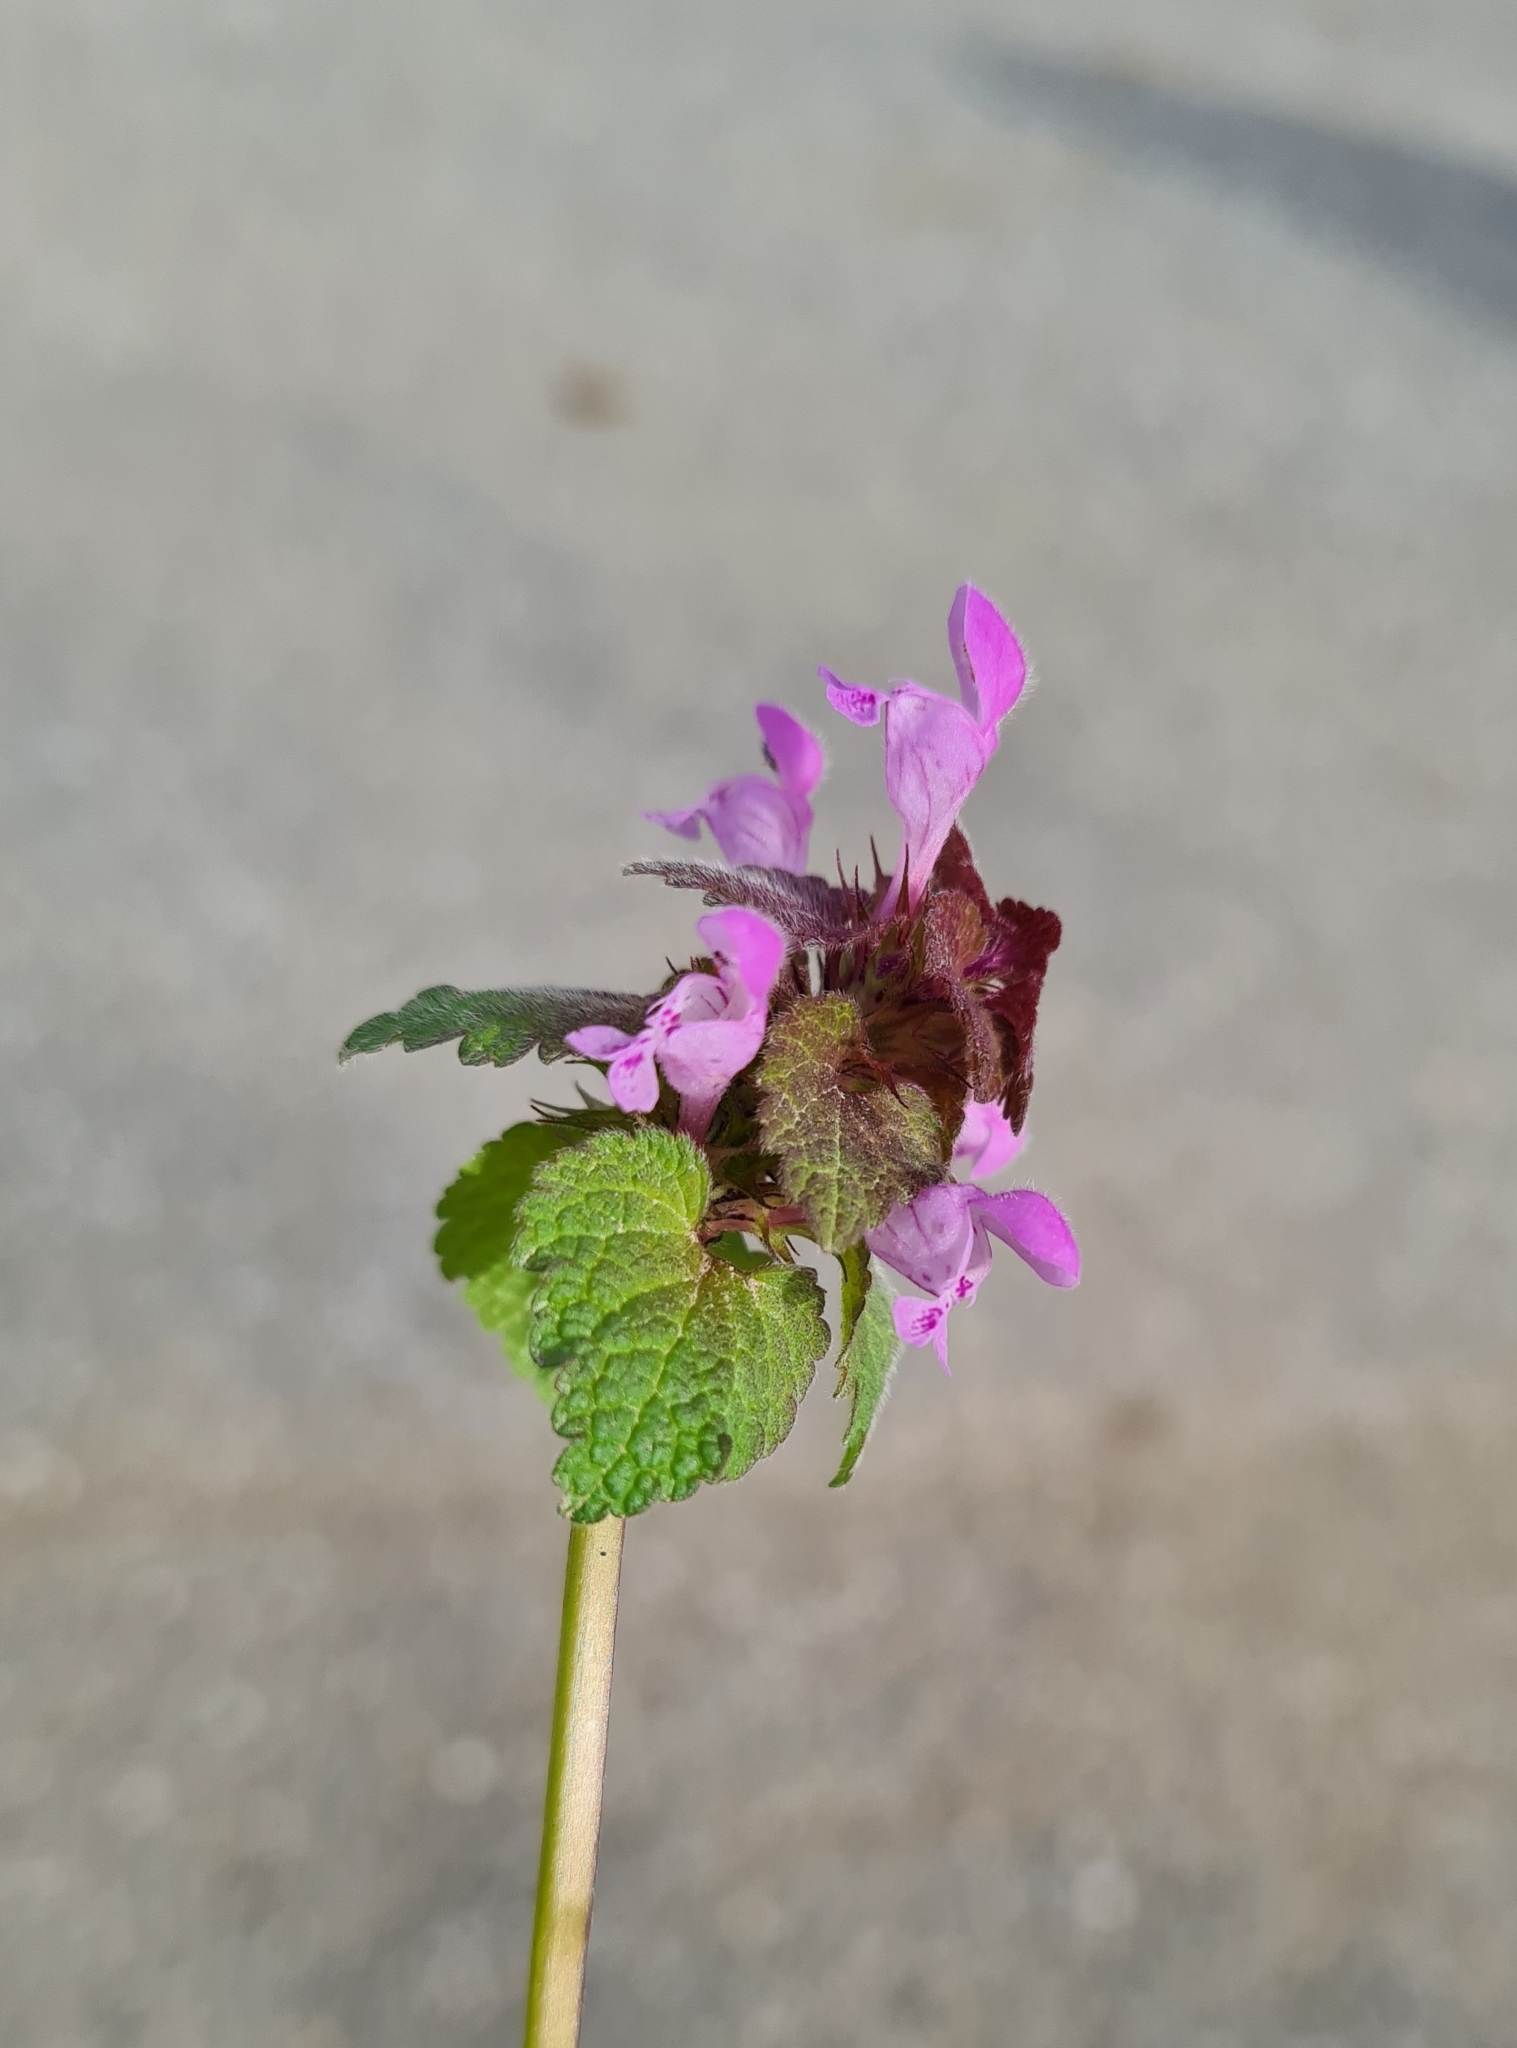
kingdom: Plantae
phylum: Tracheophyta
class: Magnoliopsida
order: Lamiales
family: Lamiaceae
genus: Lamium
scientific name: Lamium purpureum
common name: Red dead-nettle
